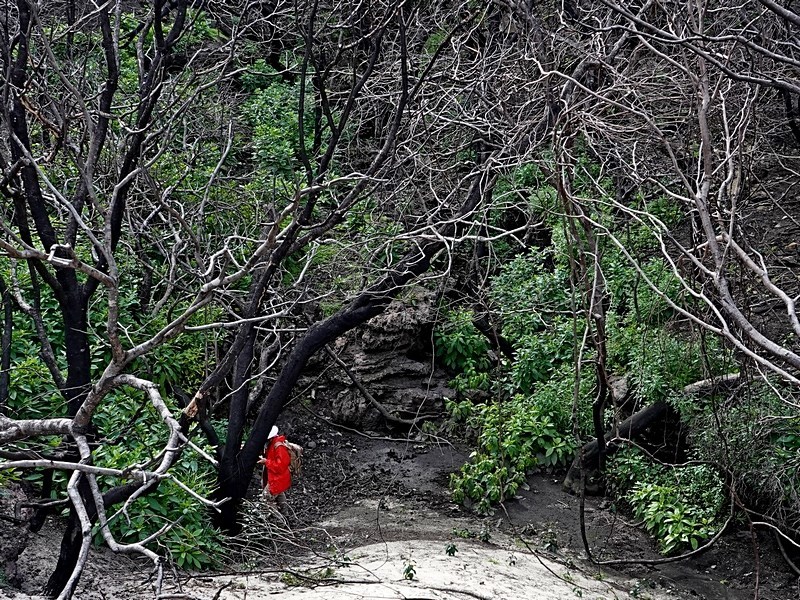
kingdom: Plantae
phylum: Tracheophyta
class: Magnoliopsida
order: Caryophyllales
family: Phytolaccaceae
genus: Phytolacca
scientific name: Phytolacca icosandra
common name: Button pokeweed
